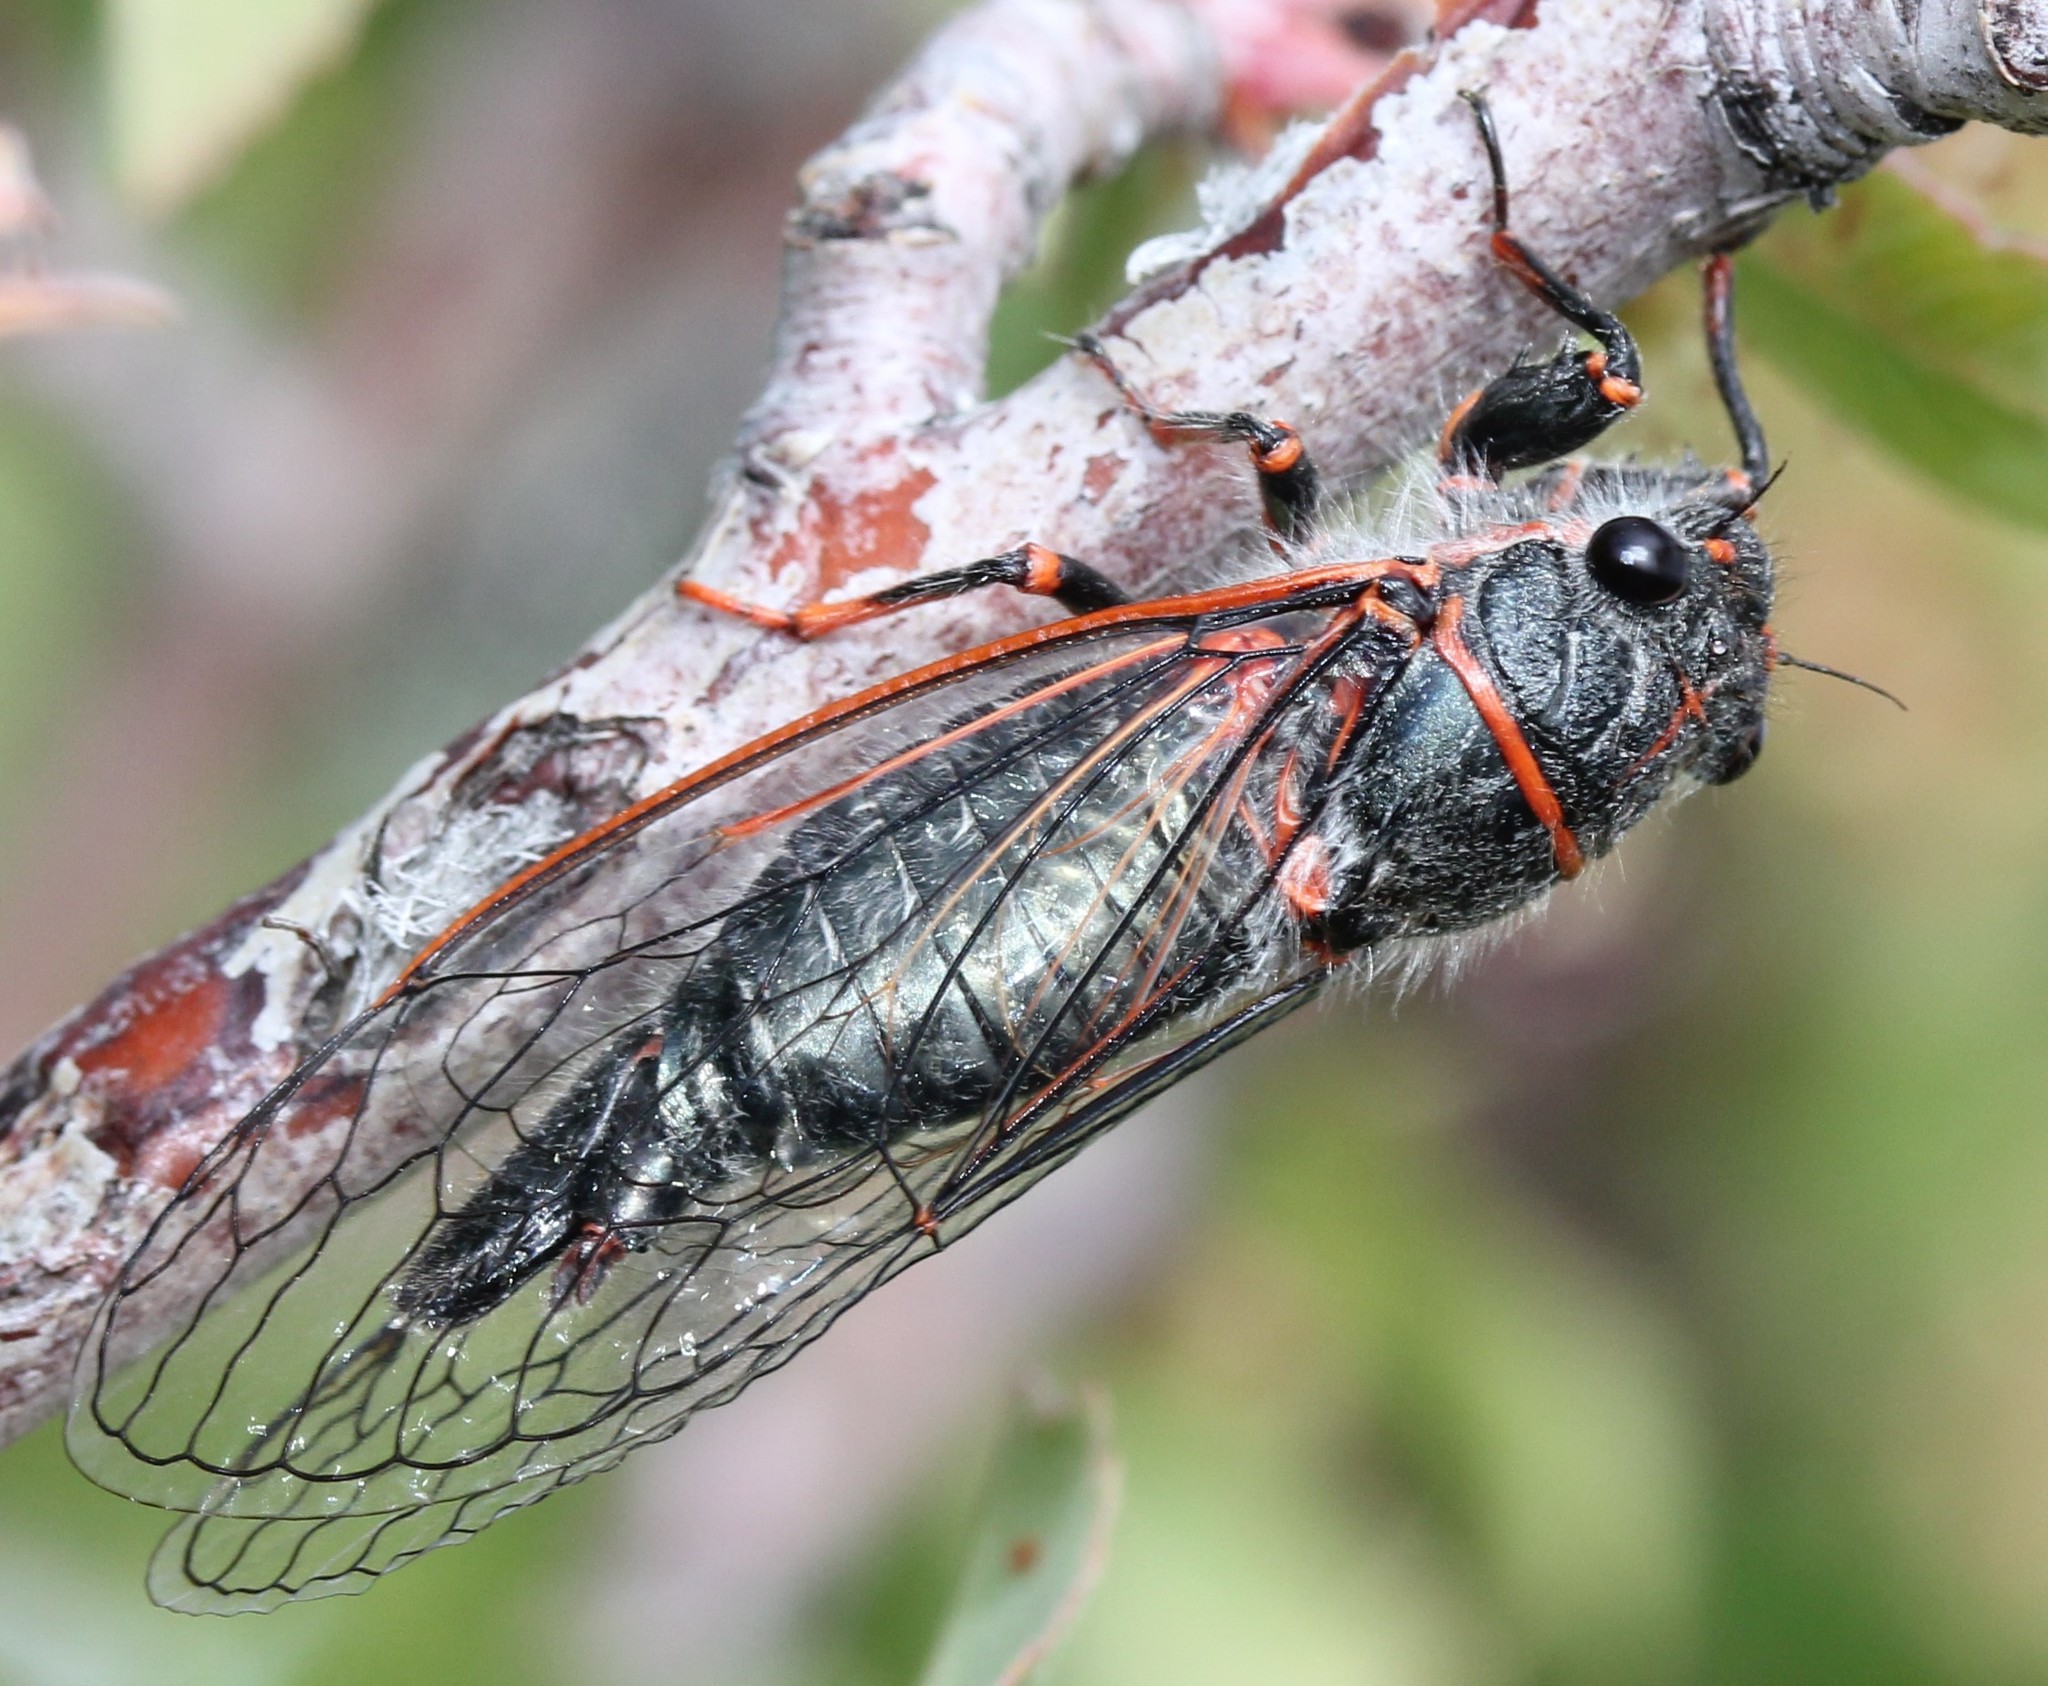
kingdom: Animalia
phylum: Arthropoda
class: Insecta
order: Hemiptera
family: Cicadidae
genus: Platypedia
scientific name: Platypedia putnami
